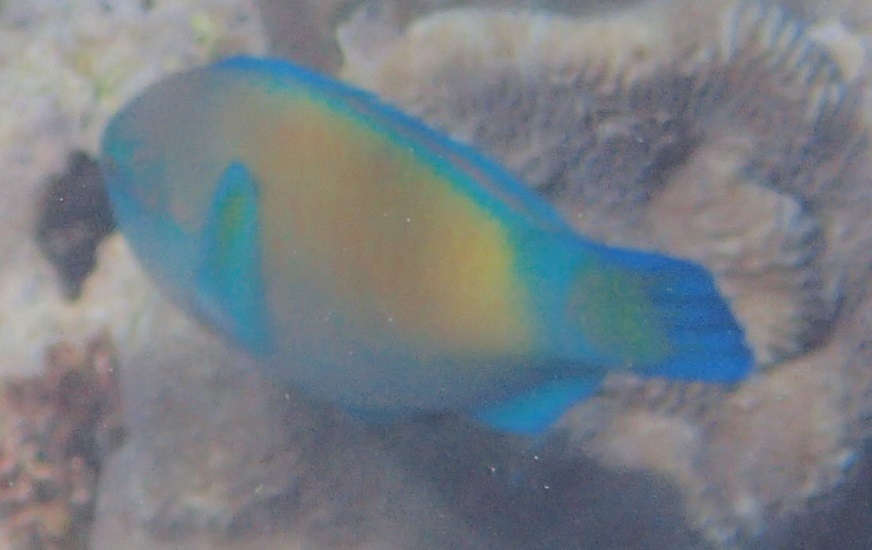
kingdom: Animalia
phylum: Chordata
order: Perciformes
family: Scaridae
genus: Chlorurus
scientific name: Chlorurus spilurus
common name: Bullethead parrotfish
